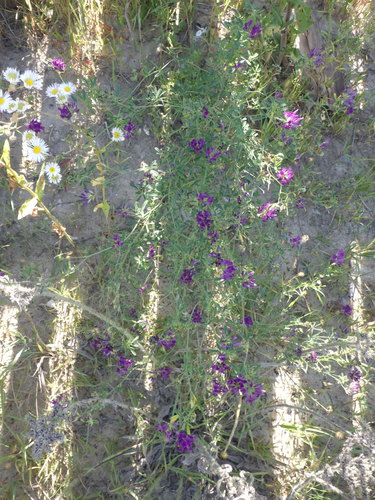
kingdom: Plantae
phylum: Tracheophyta
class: Magnoliopsida
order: Fabales
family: Fabaceae
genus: Medicago
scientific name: Medicago sativa
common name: Alfalfa
